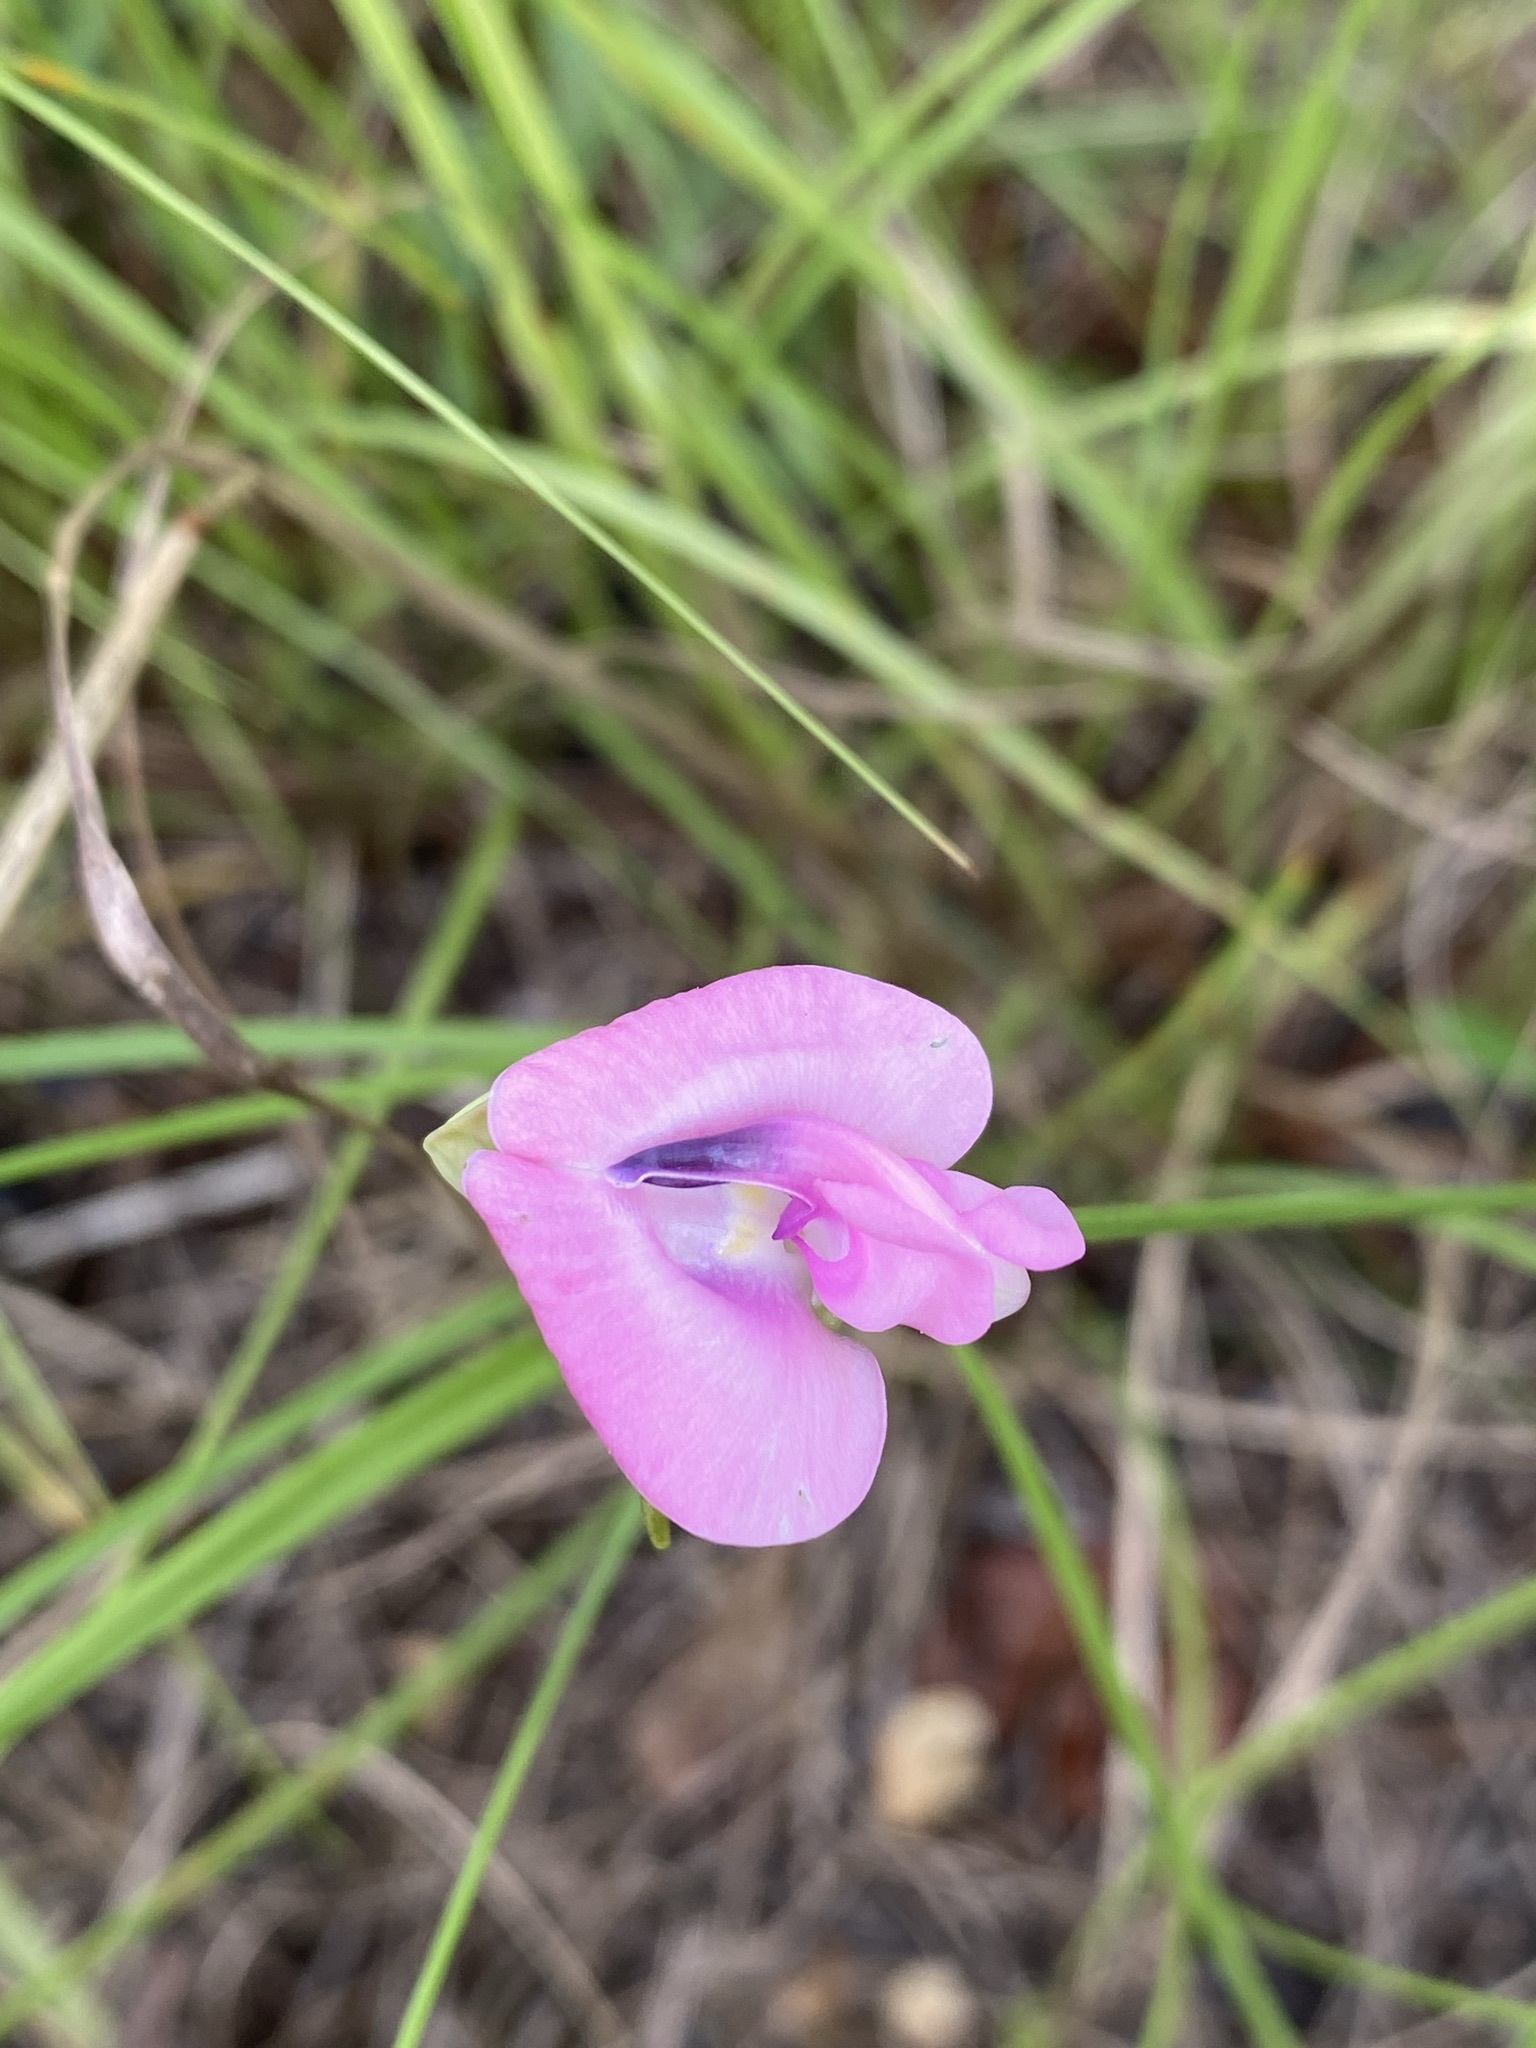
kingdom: Plantae
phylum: Tracheophyta
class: Magnoliopsida
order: Fabales
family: Fabaceae
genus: Strophostyles
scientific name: Strophostyles umbellata
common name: Perennial wild bean
